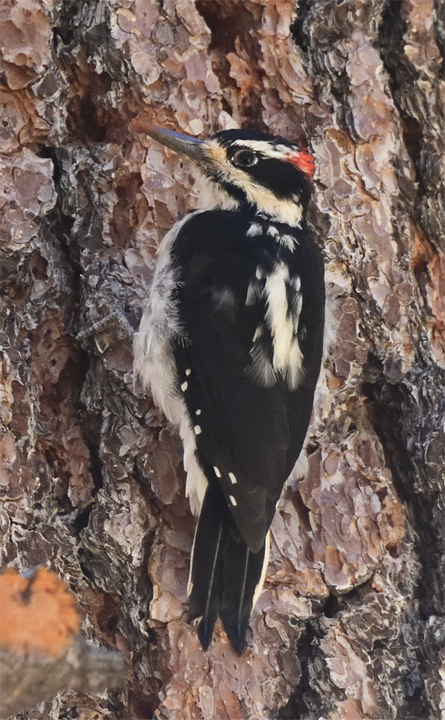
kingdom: Animalia
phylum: Chordata
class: Aves
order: Piciformes
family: Picidae
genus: Leuconotopicus
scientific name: Leuconotopicus villosus
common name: Hairy woodpecker
